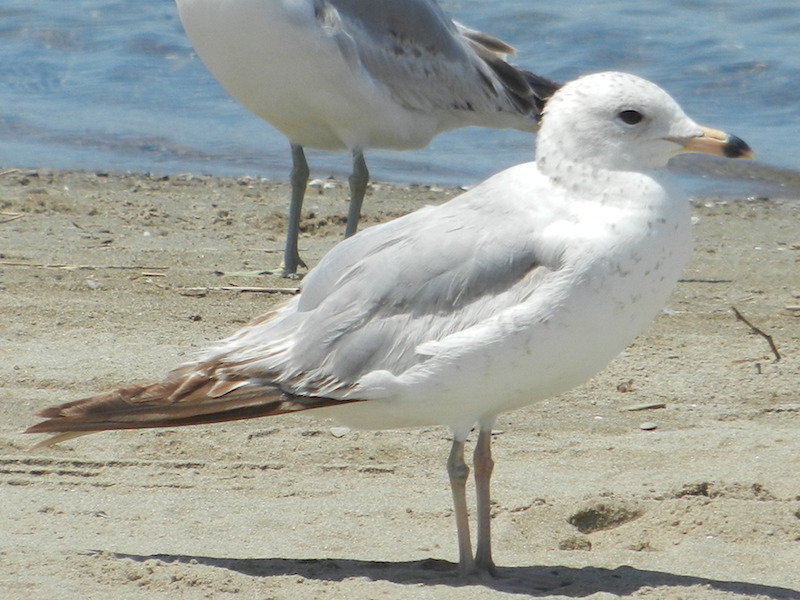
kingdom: Animalia
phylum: Chordata
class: Aves
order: Charadriiformes
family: Laridae
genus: Larus
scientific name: Larus delawarensis
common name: Ring-billed gull
